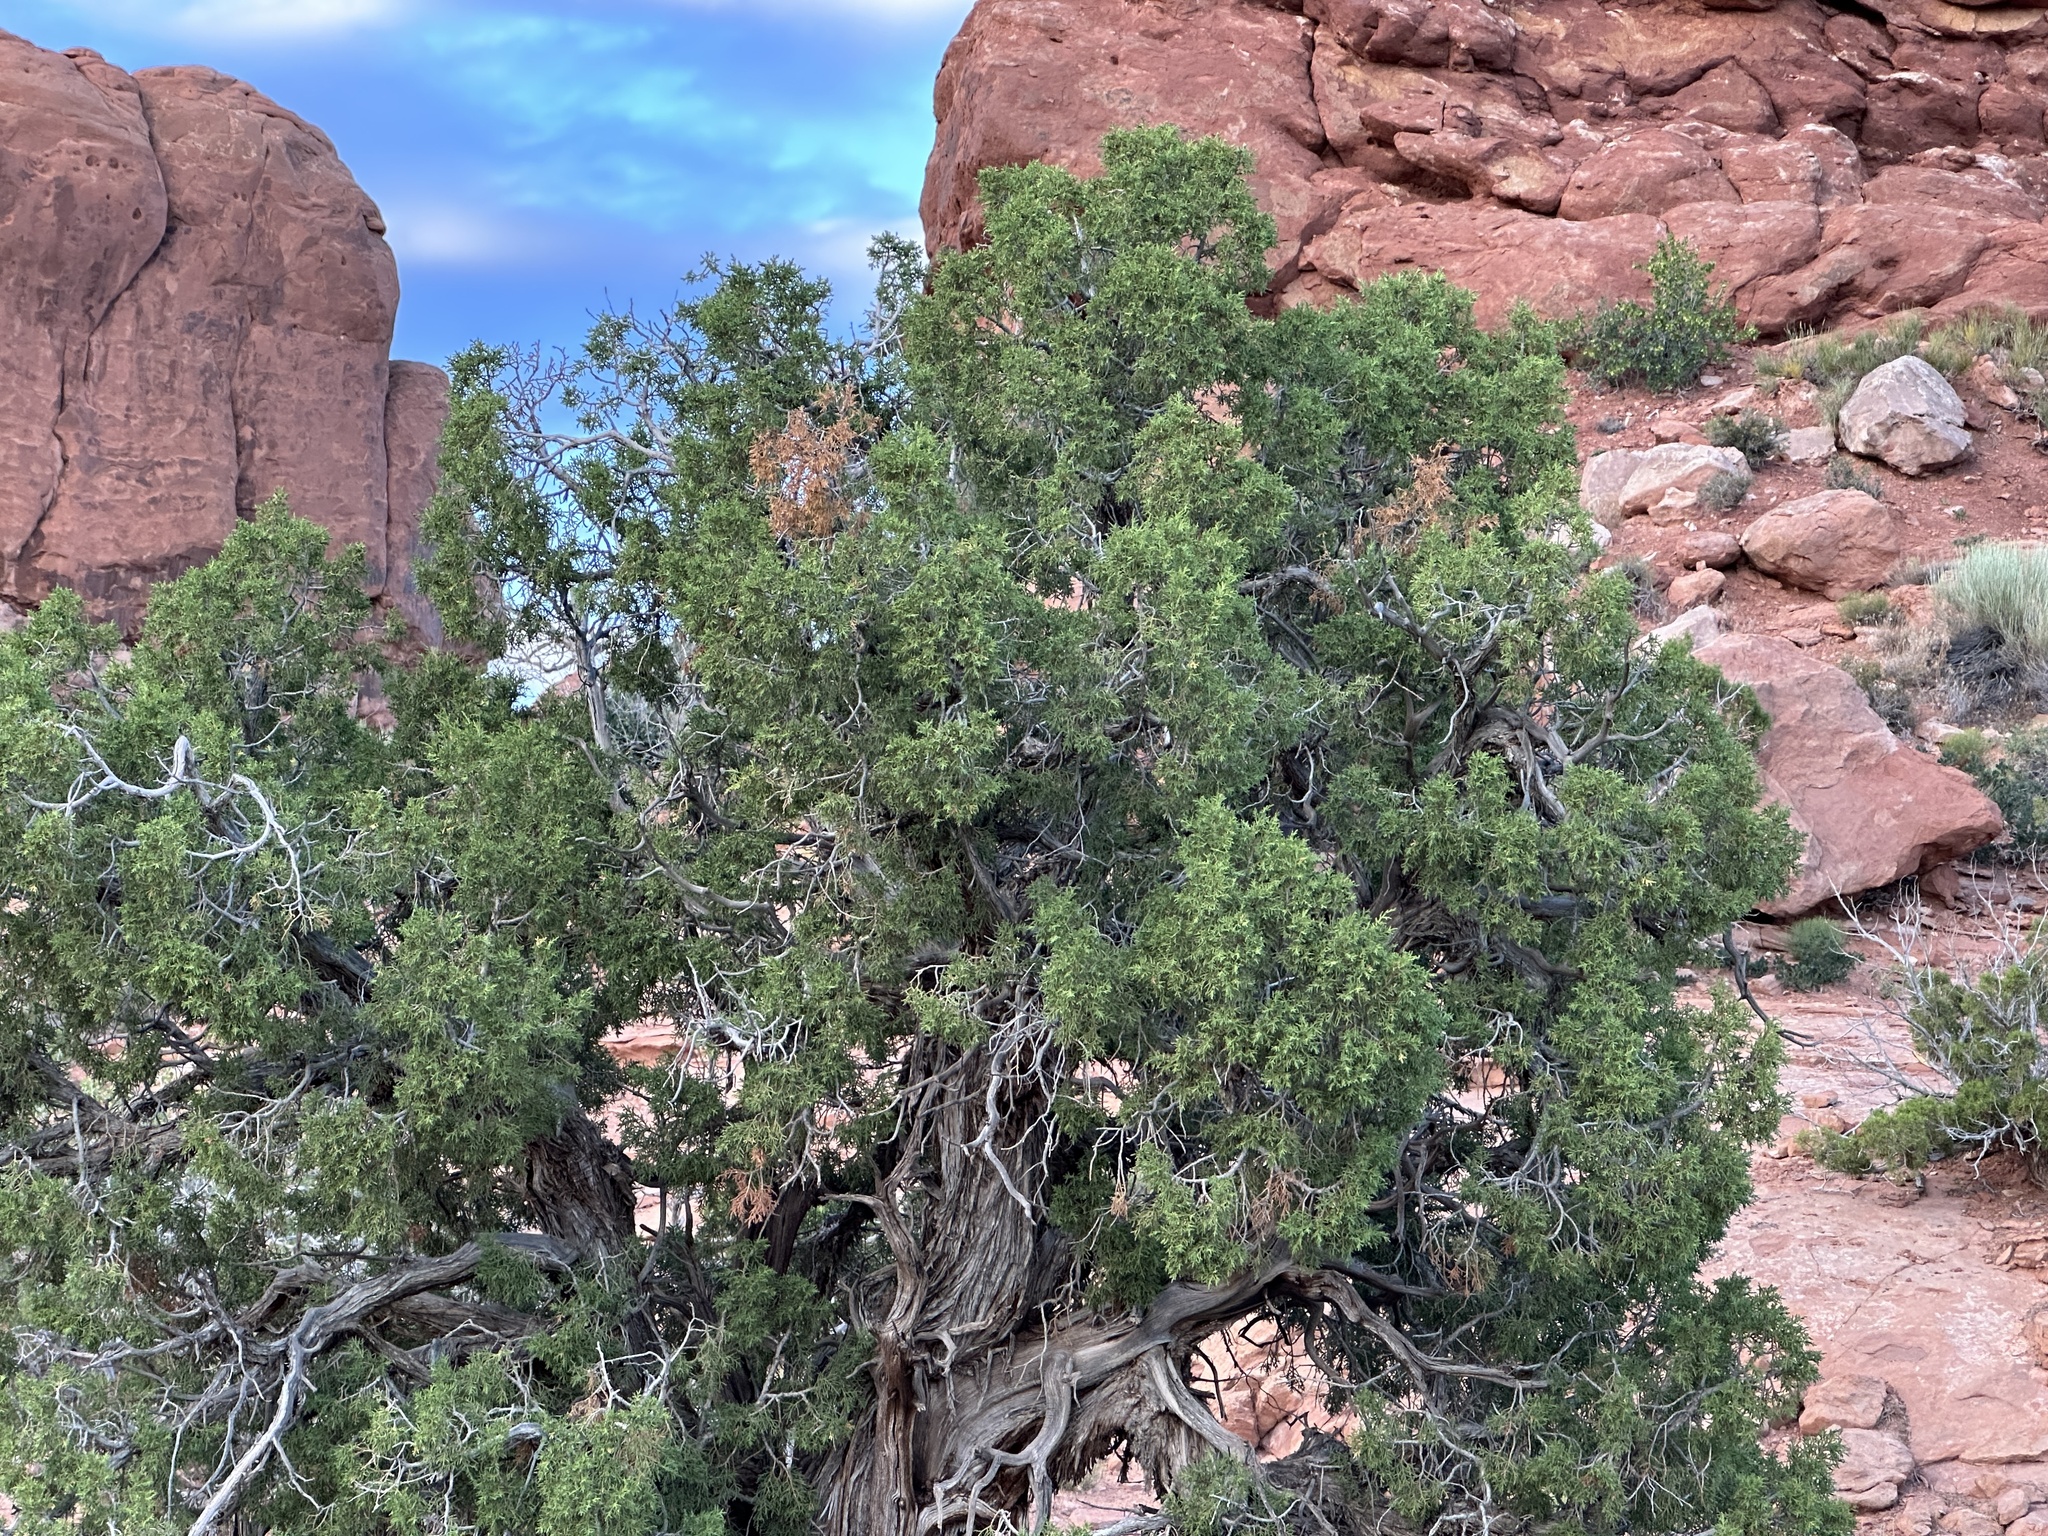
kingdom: Plantae
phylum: Tracheophyta
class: Pinopsida
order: Pinales
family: Cupressaceae
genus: Juniperus
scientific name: Juniperus osteosperma
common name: Utah juniper
